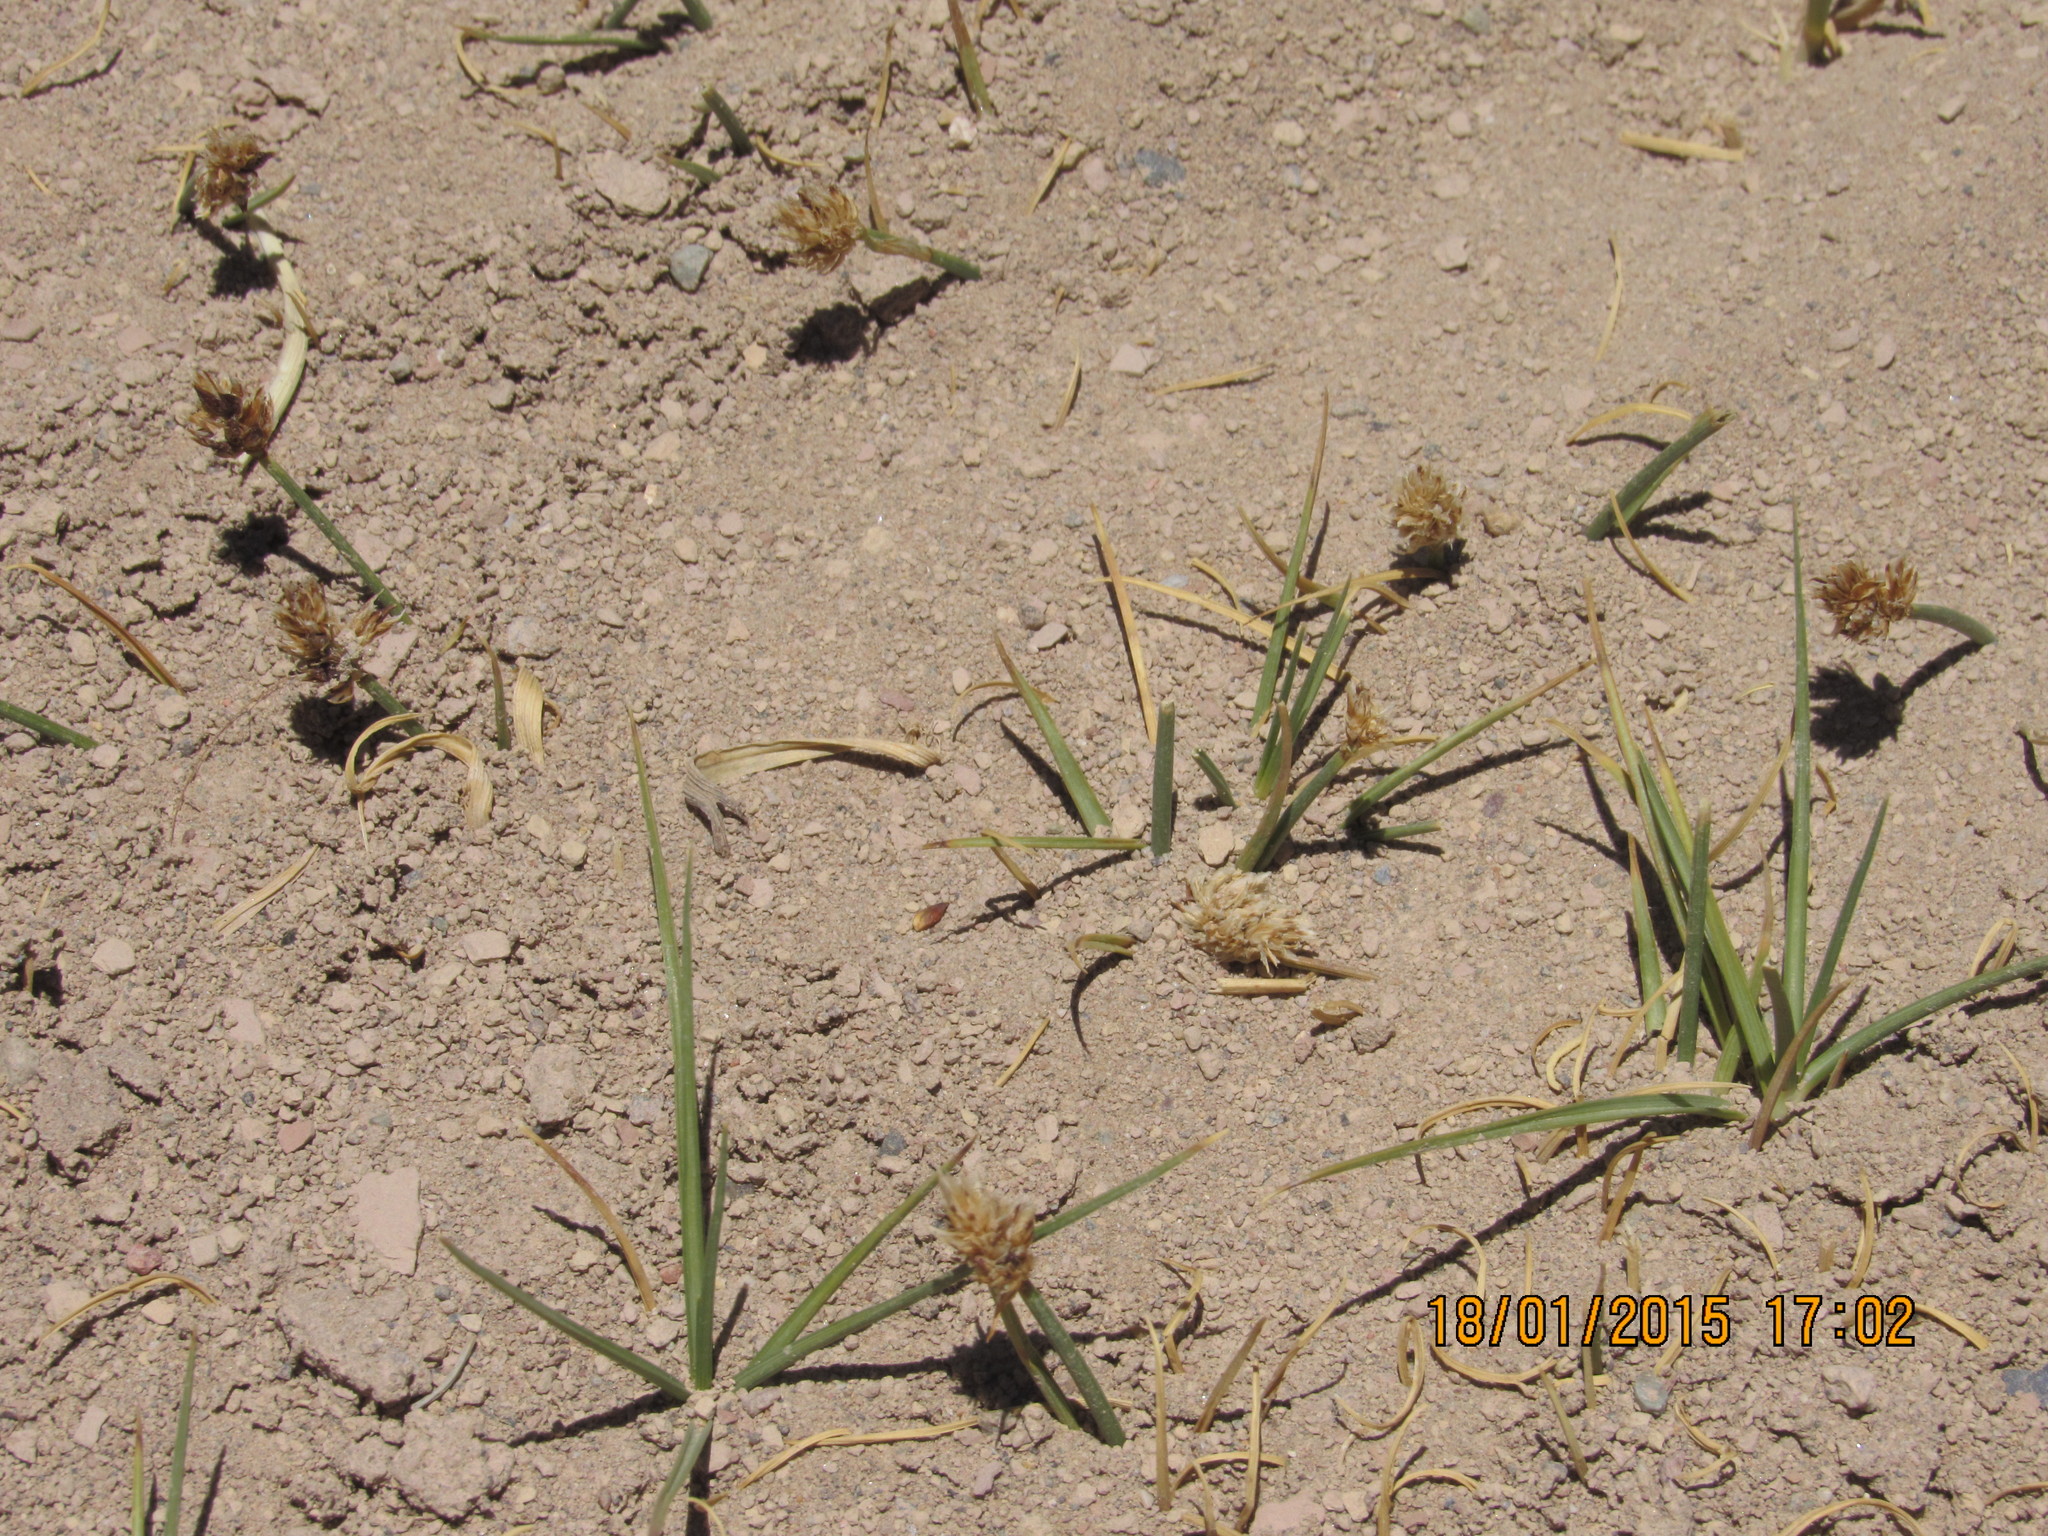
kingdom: Plantae
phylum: Tracheophyta
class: Liliopsida
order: Poales
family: Cyperaceae
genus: Carex
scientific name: Carex maritima
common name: Curved sedge
